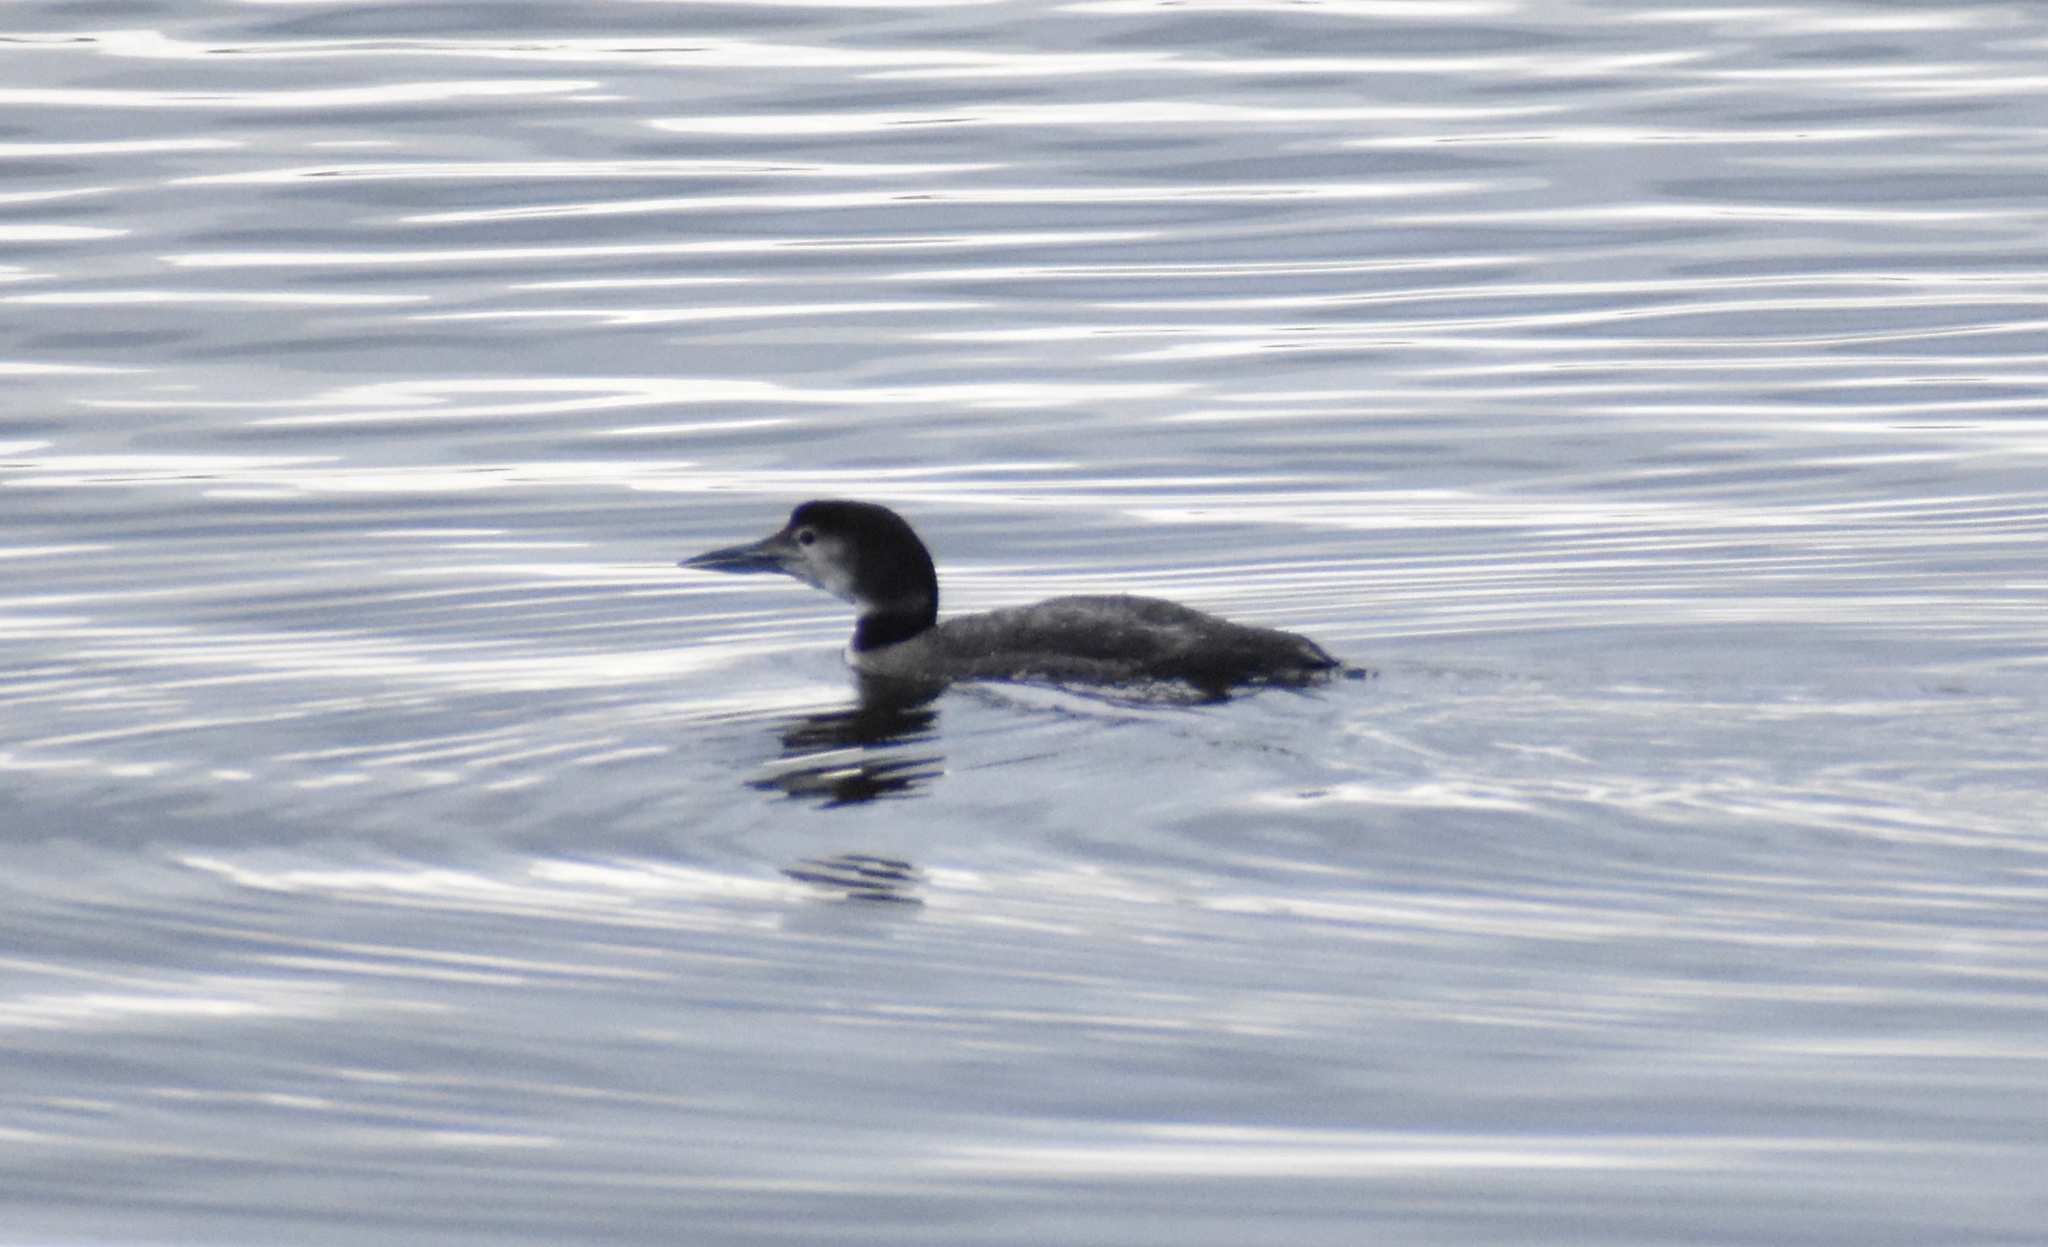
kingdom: Animalia
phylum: Chordata
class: Aves
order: Gaviiformes
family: Gaviidae
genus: Gavia
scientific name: Gavia immer
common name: Common loon
